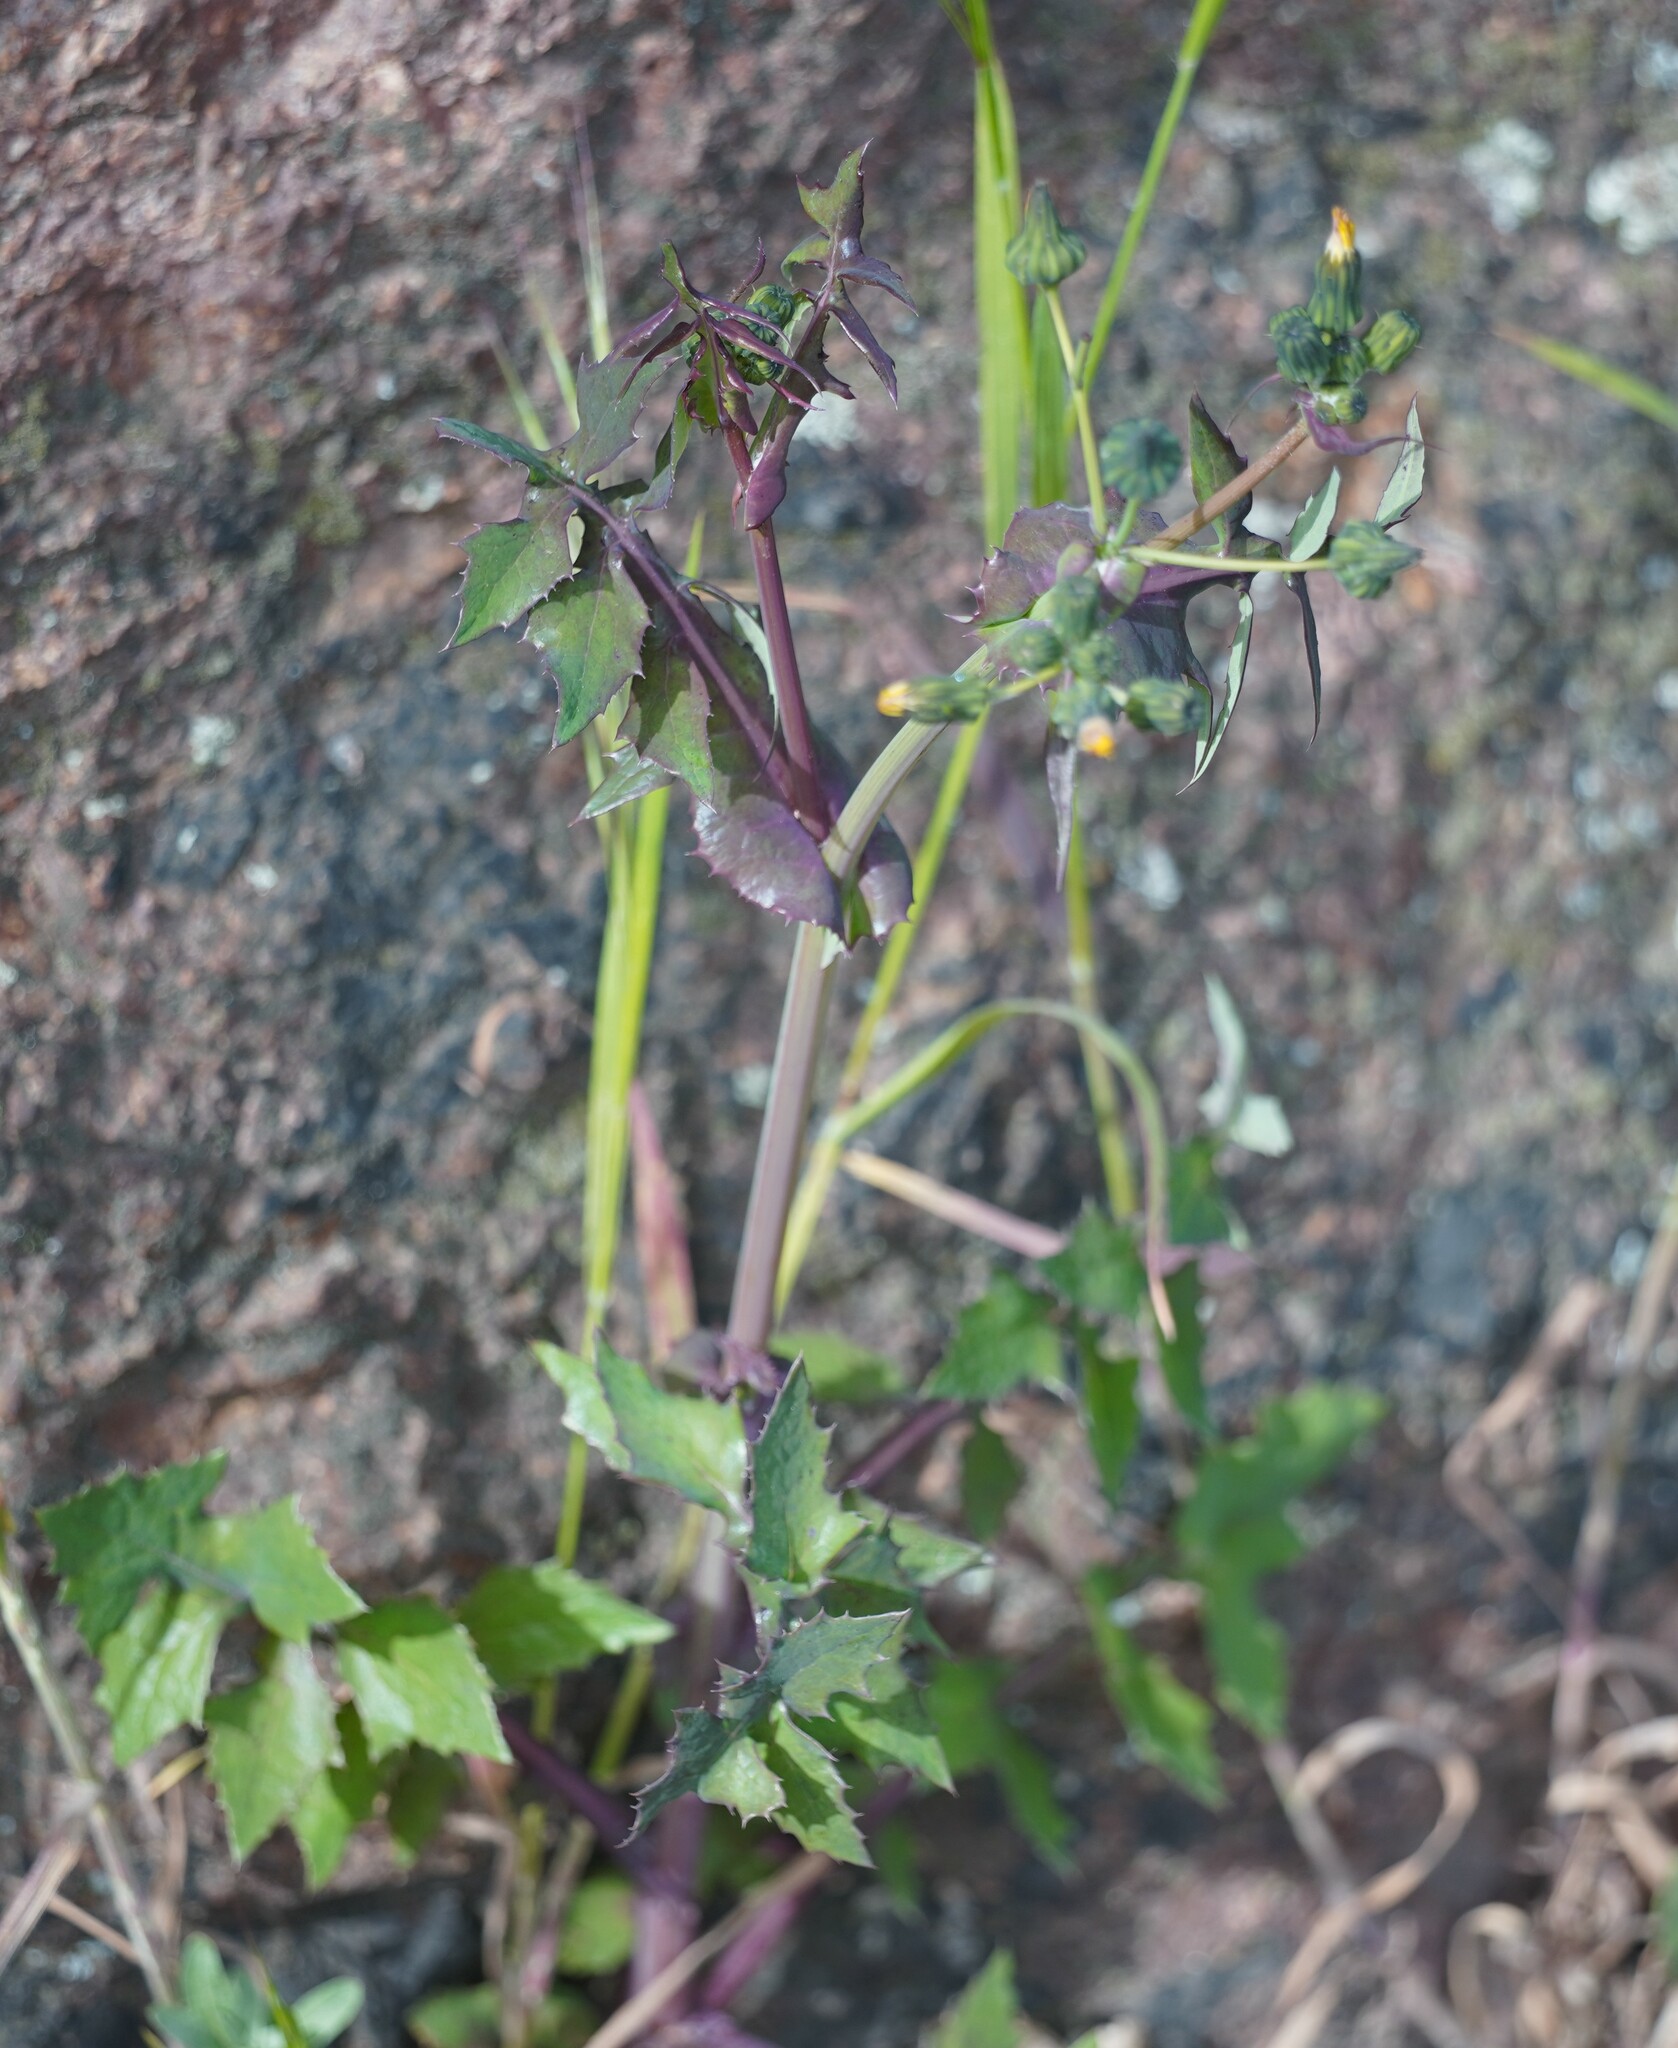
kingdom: Plantae
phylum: Tracheophyta
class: Magnoliopsida
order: Asterales
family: Asteraceae
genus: Sonchus
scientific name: Sonchus oleraceus
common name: Common sowthistle
